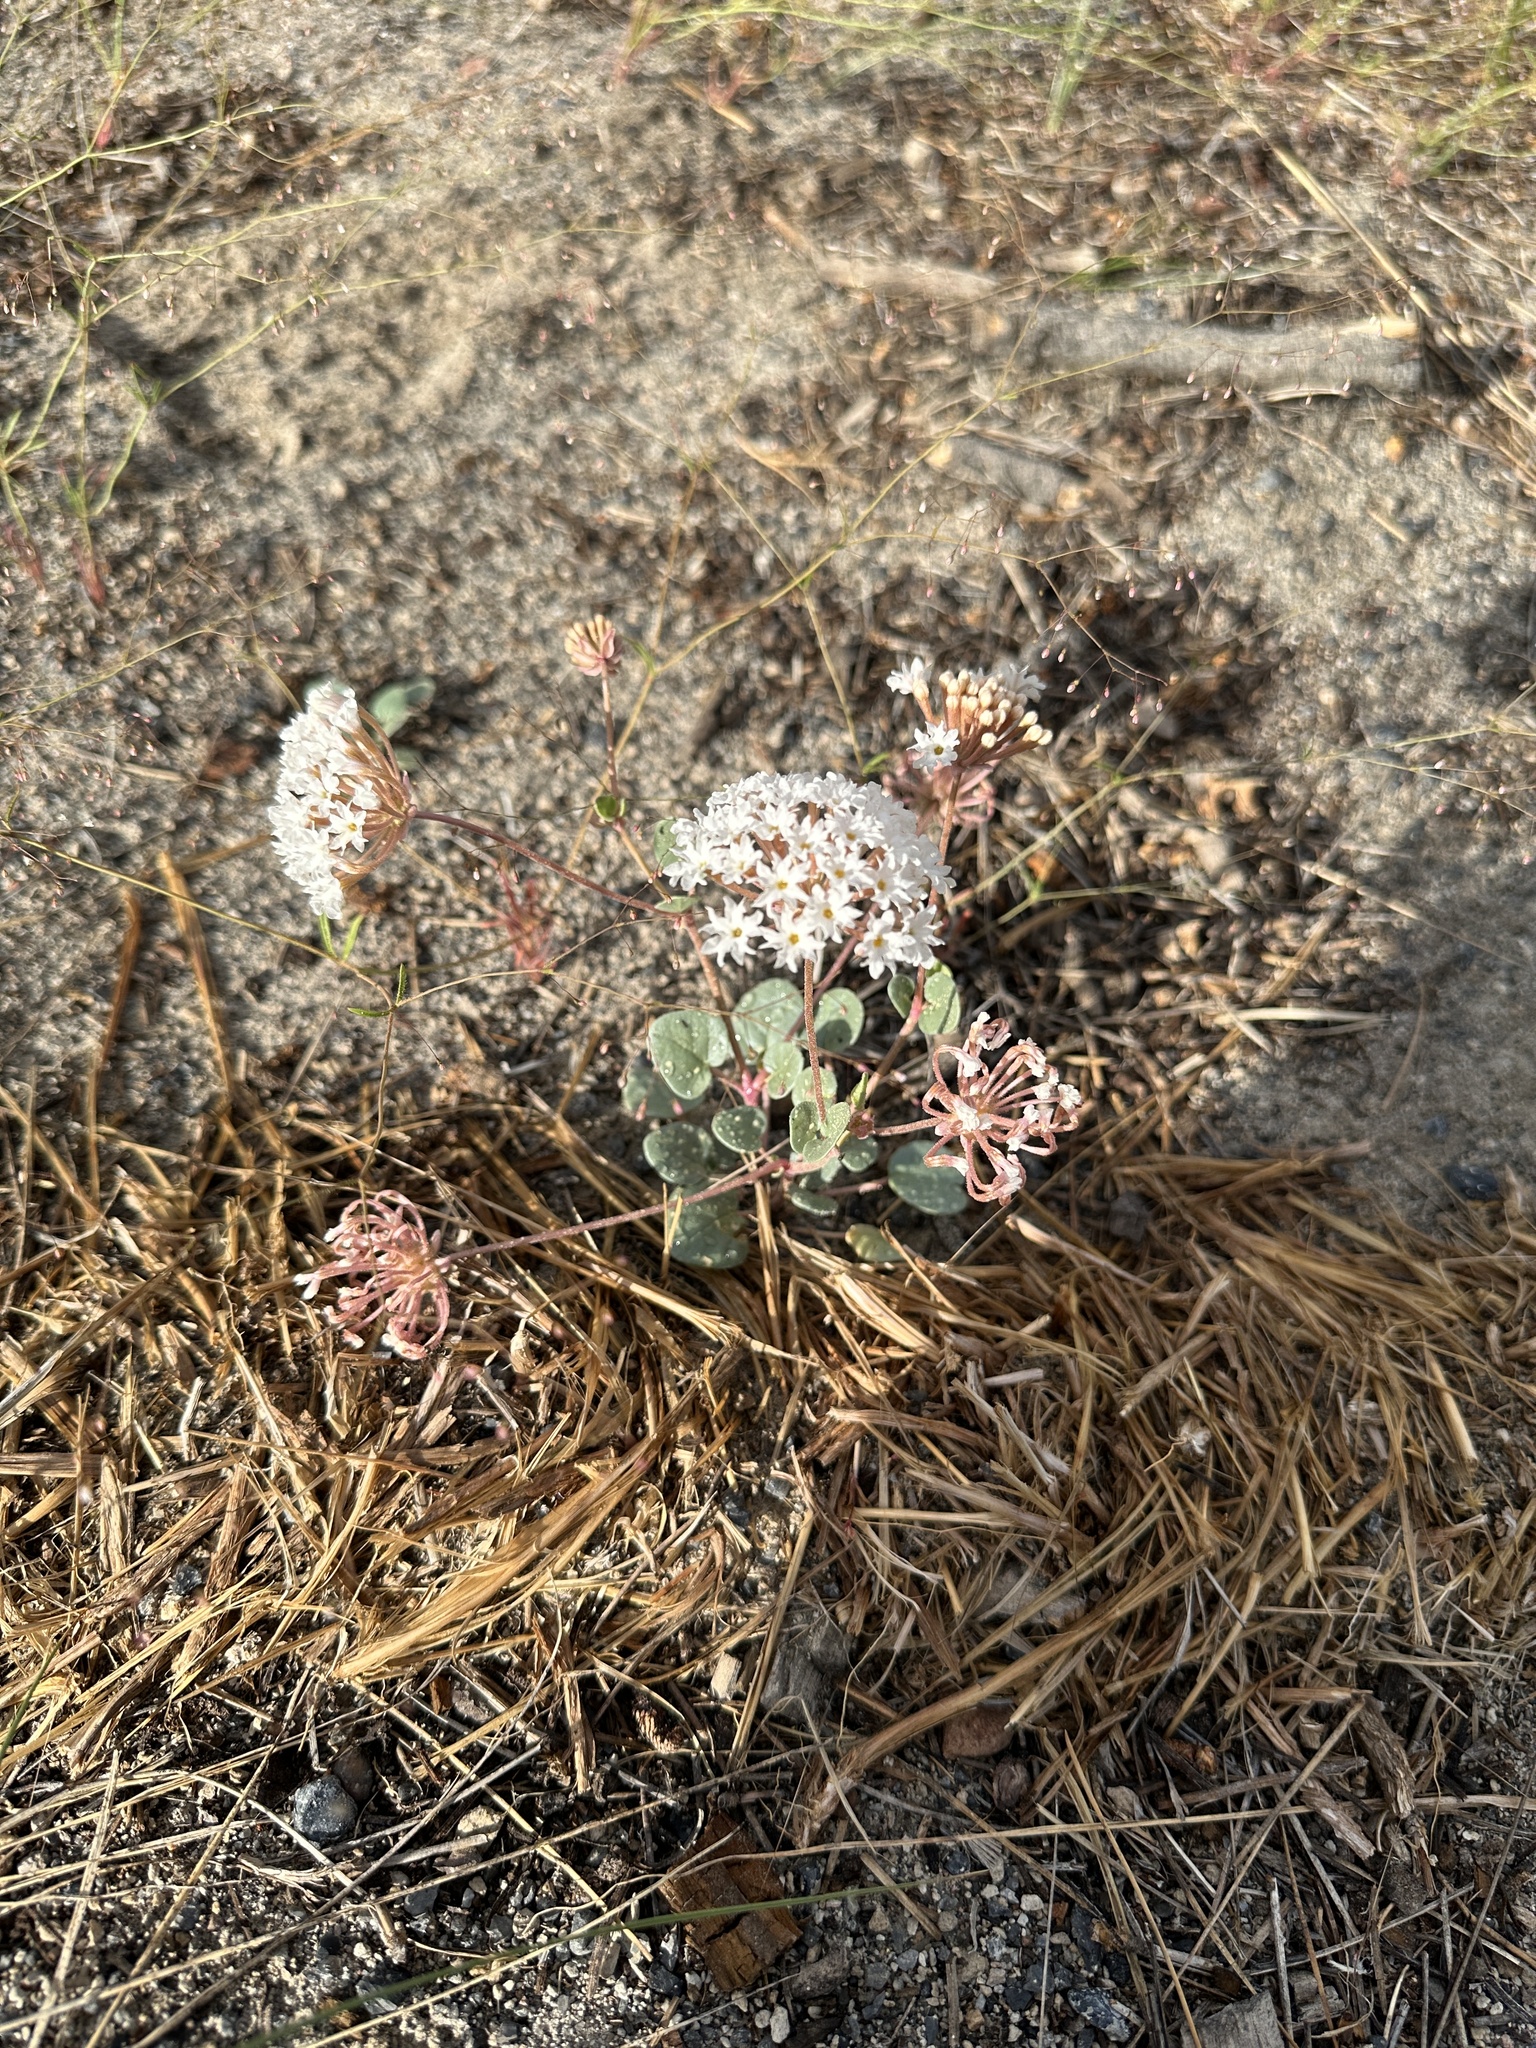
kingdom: Plantae
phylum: Tracheophyta
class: Magnoliopsida
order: Caryophyllales
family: Nyctaginaceae
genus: Abronia
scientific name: Abronia turbinata
